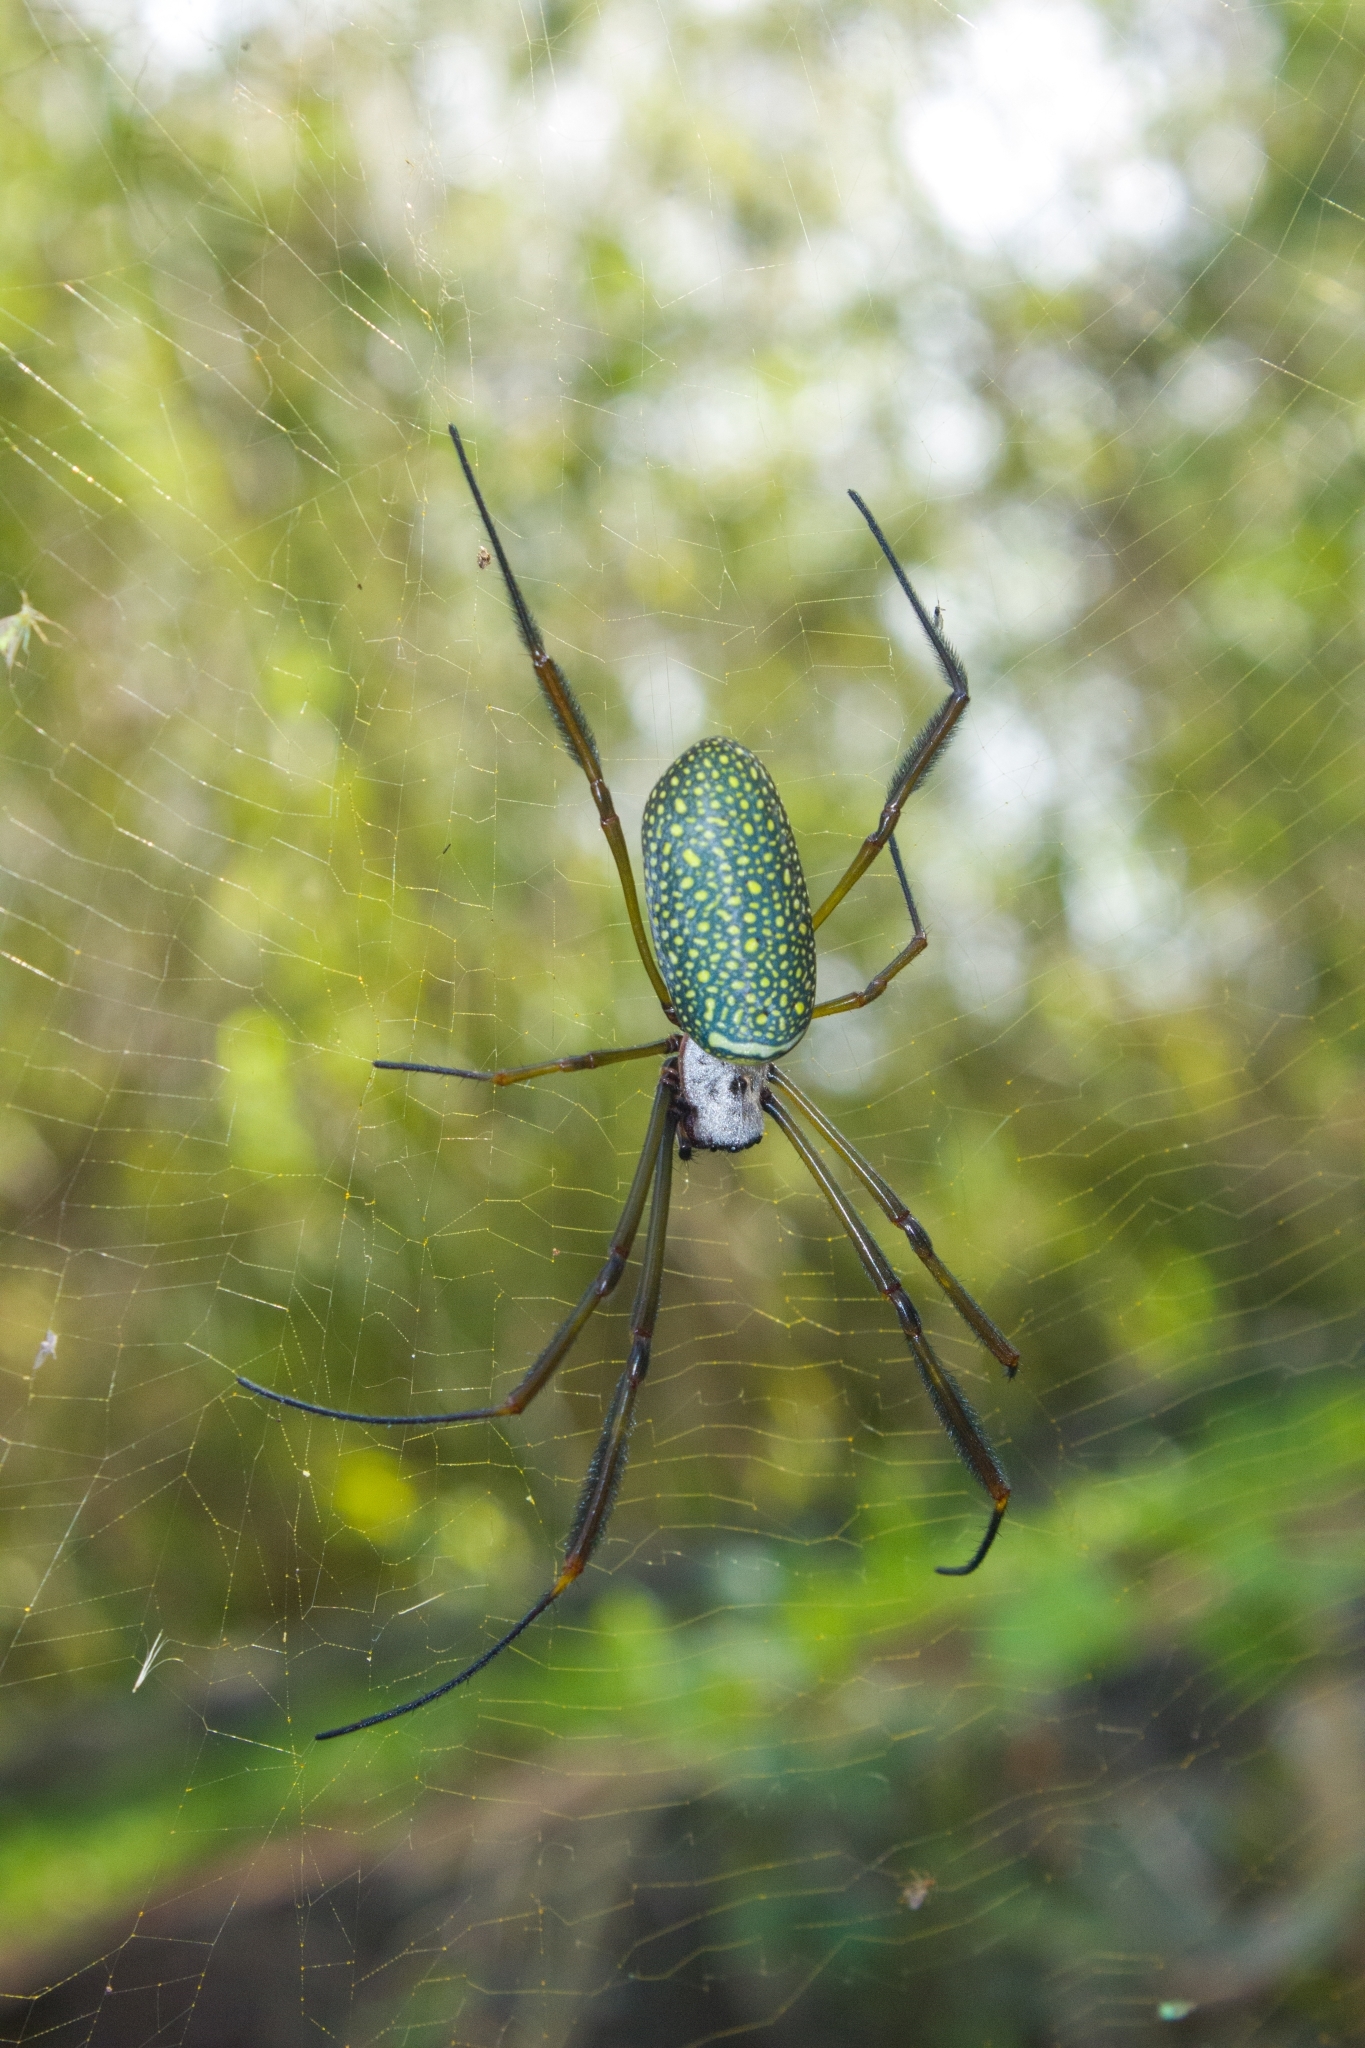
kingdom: Animalia
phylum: Arthropoda
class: Arachnida
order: Araneae
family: Araneidae
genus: Trichonephila
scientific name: Trichonephila clavipes
